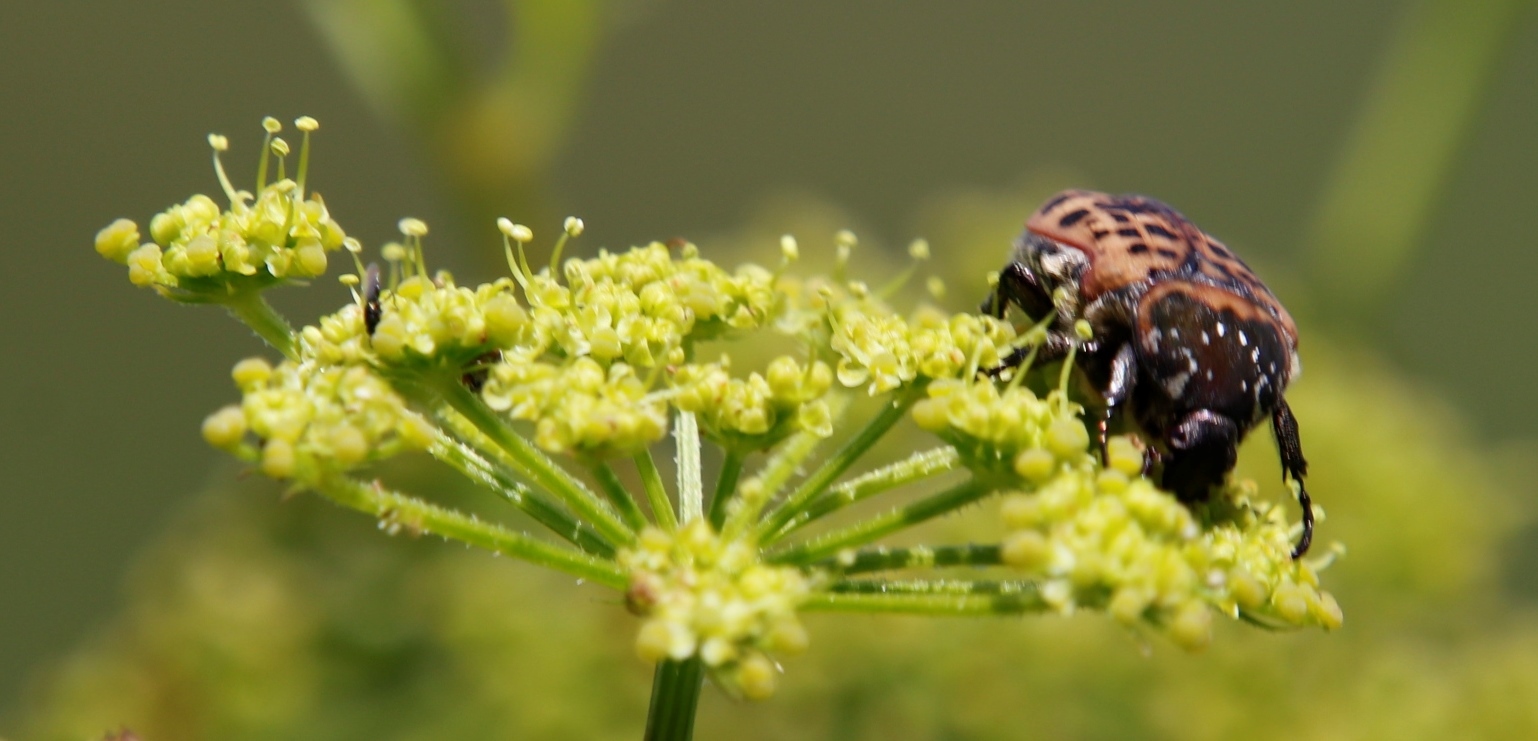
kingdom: Animalia
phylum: Arthropoda
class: Insecta
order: Coleoptera
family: Scarabaeidae
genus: Atrichelaphinis
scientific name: Atrichelaphinis tigrina
